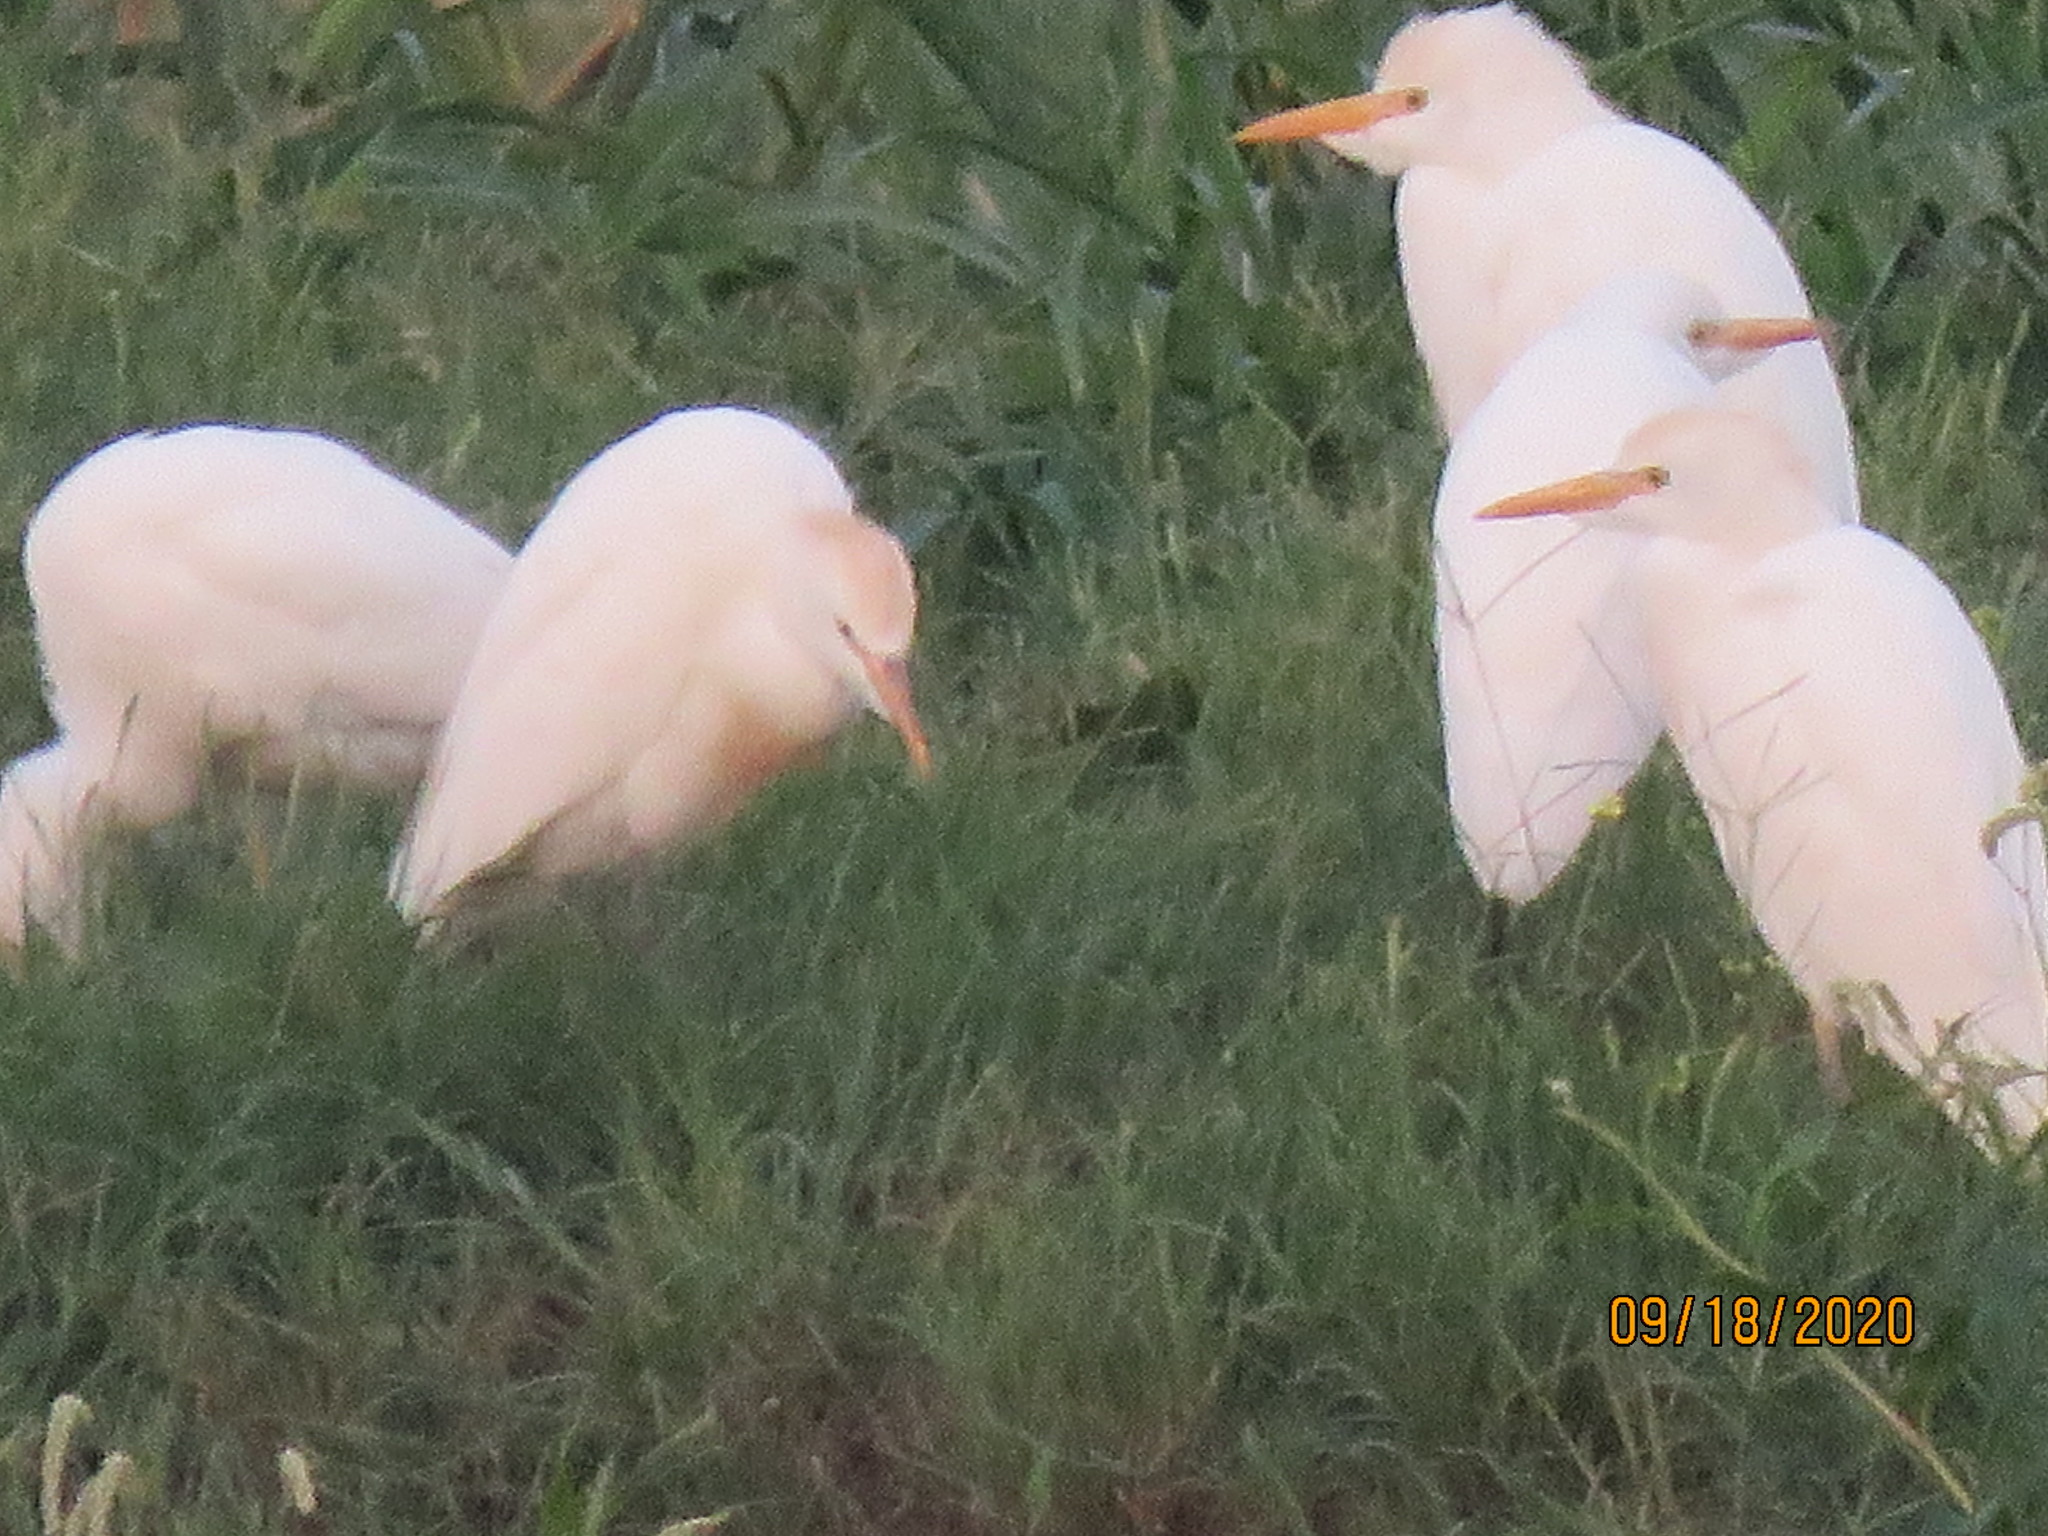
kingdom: Animalia
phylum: Chordata
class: Aves
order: Pelecaniformes
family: Ardeidae
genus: Bubulcus
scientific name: Bubulcus ibis
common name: Cattle egret
